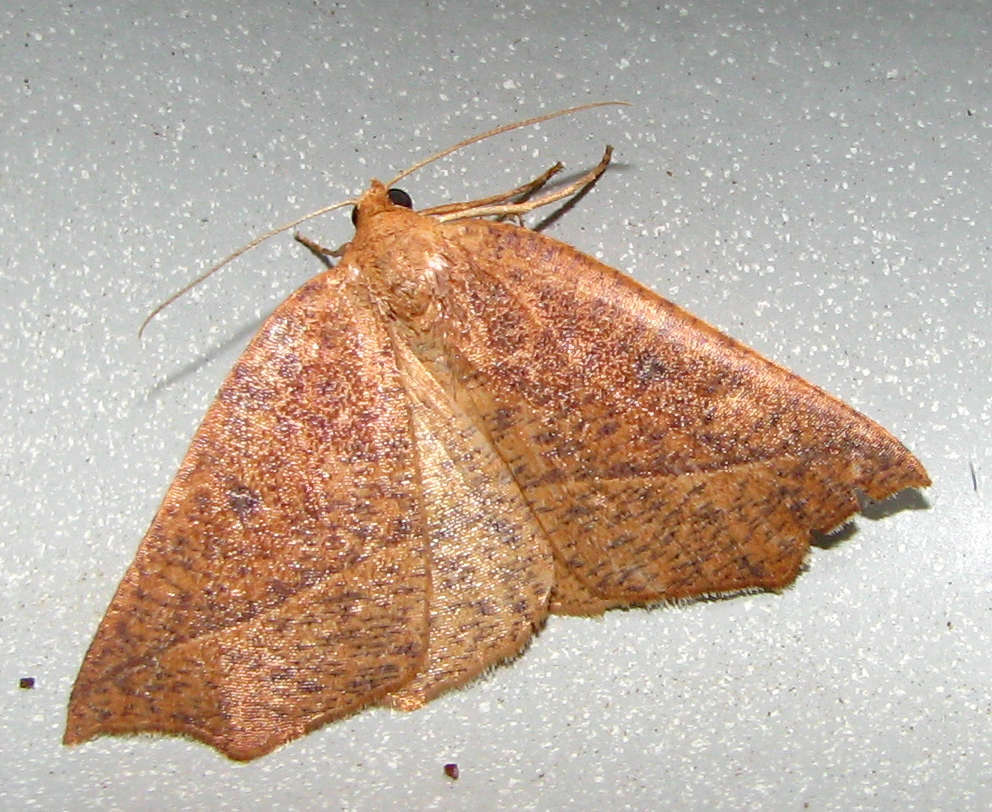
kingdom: Animalia
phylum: Arthropoda
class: Insecta
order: Lepidoptera
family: Geometridae
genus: Microsema
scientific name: Microsema
